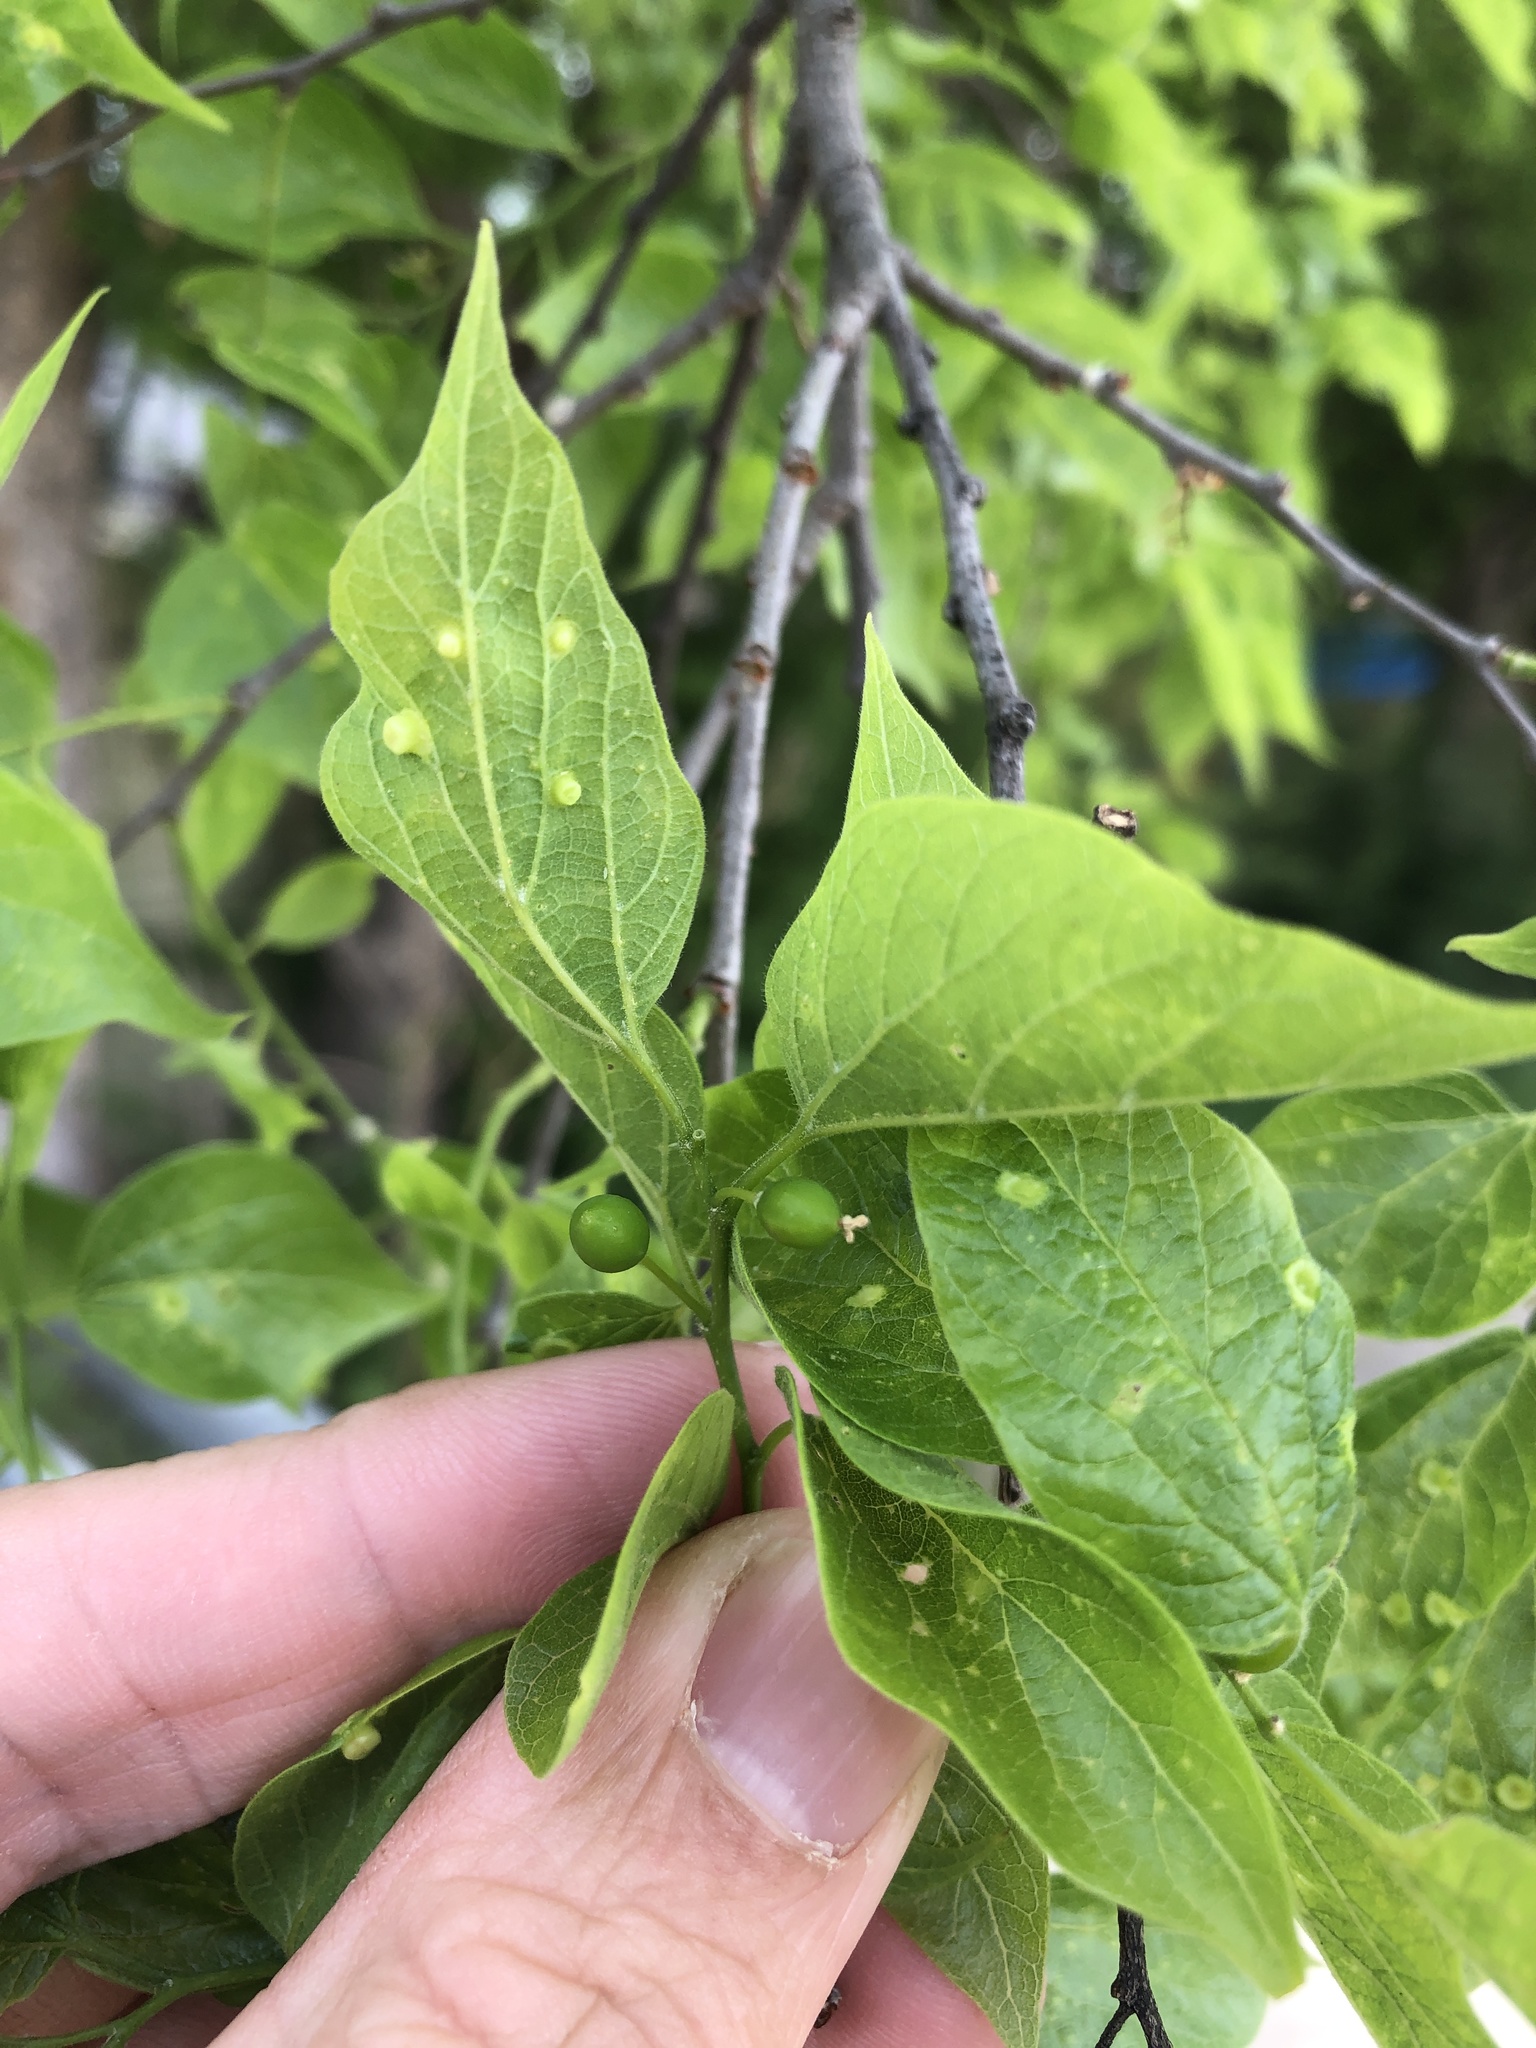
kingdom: Plantae
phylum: Tracheophyta
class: Magnoliopsida
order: Rosales
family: Cannabaceae
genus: Celtis
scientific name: Celtis laevigata
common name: Sugarberry
